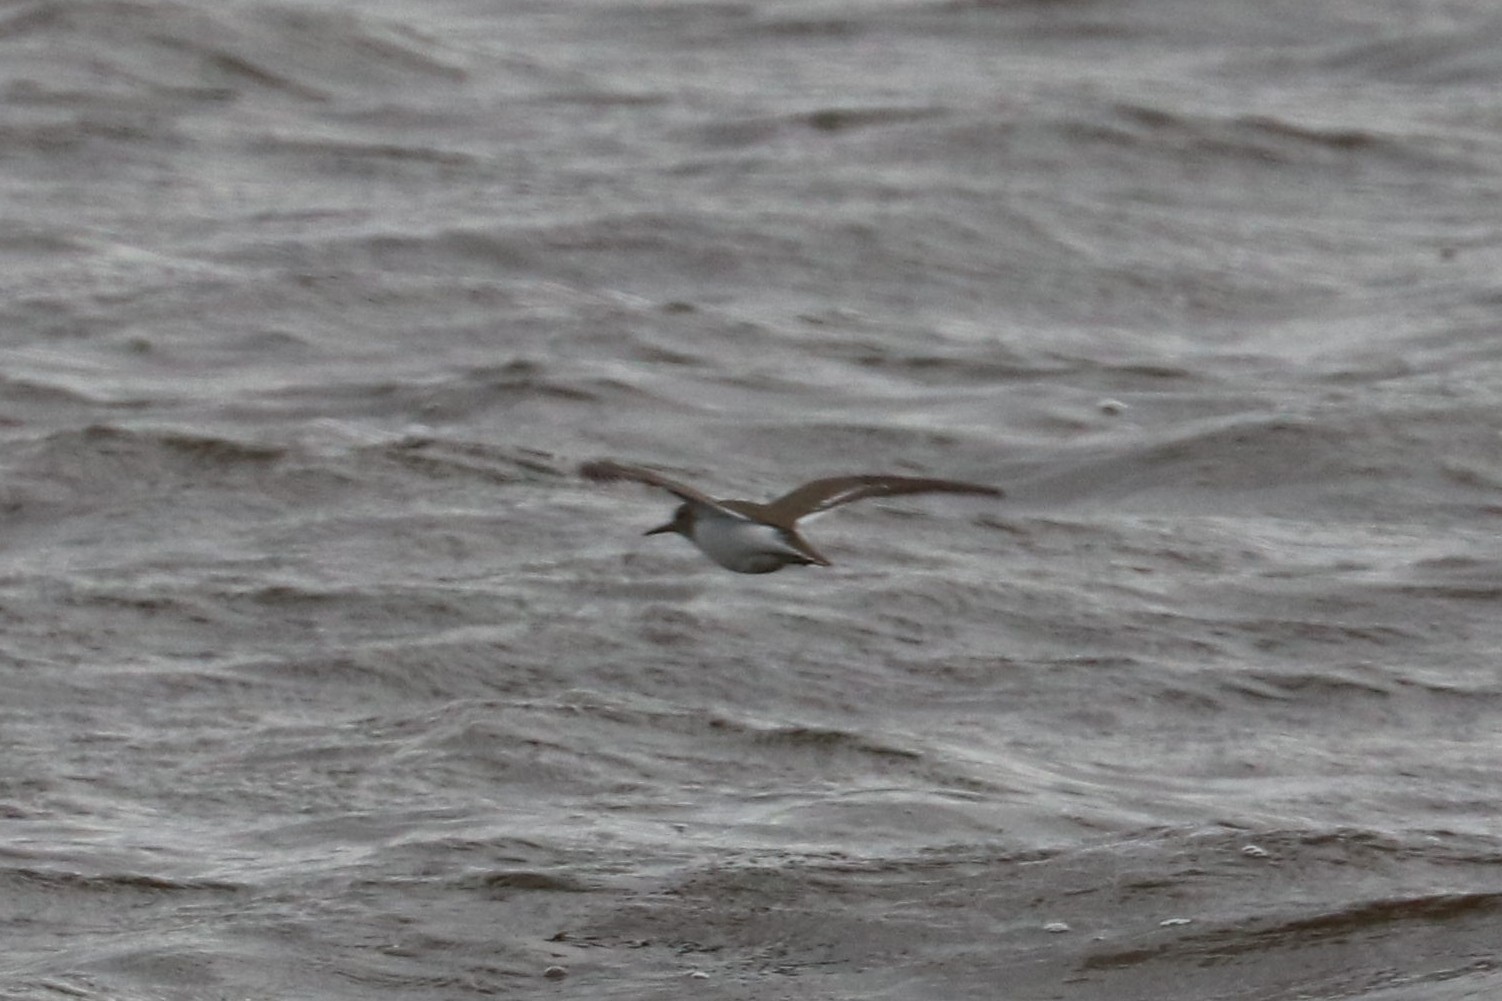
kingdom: Animalia
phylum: Chordata
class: Aves
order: Charadriiformes
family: Scolopacidae
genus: Actitis
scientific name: Actitis hypoleucos
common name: Common sandpiper
